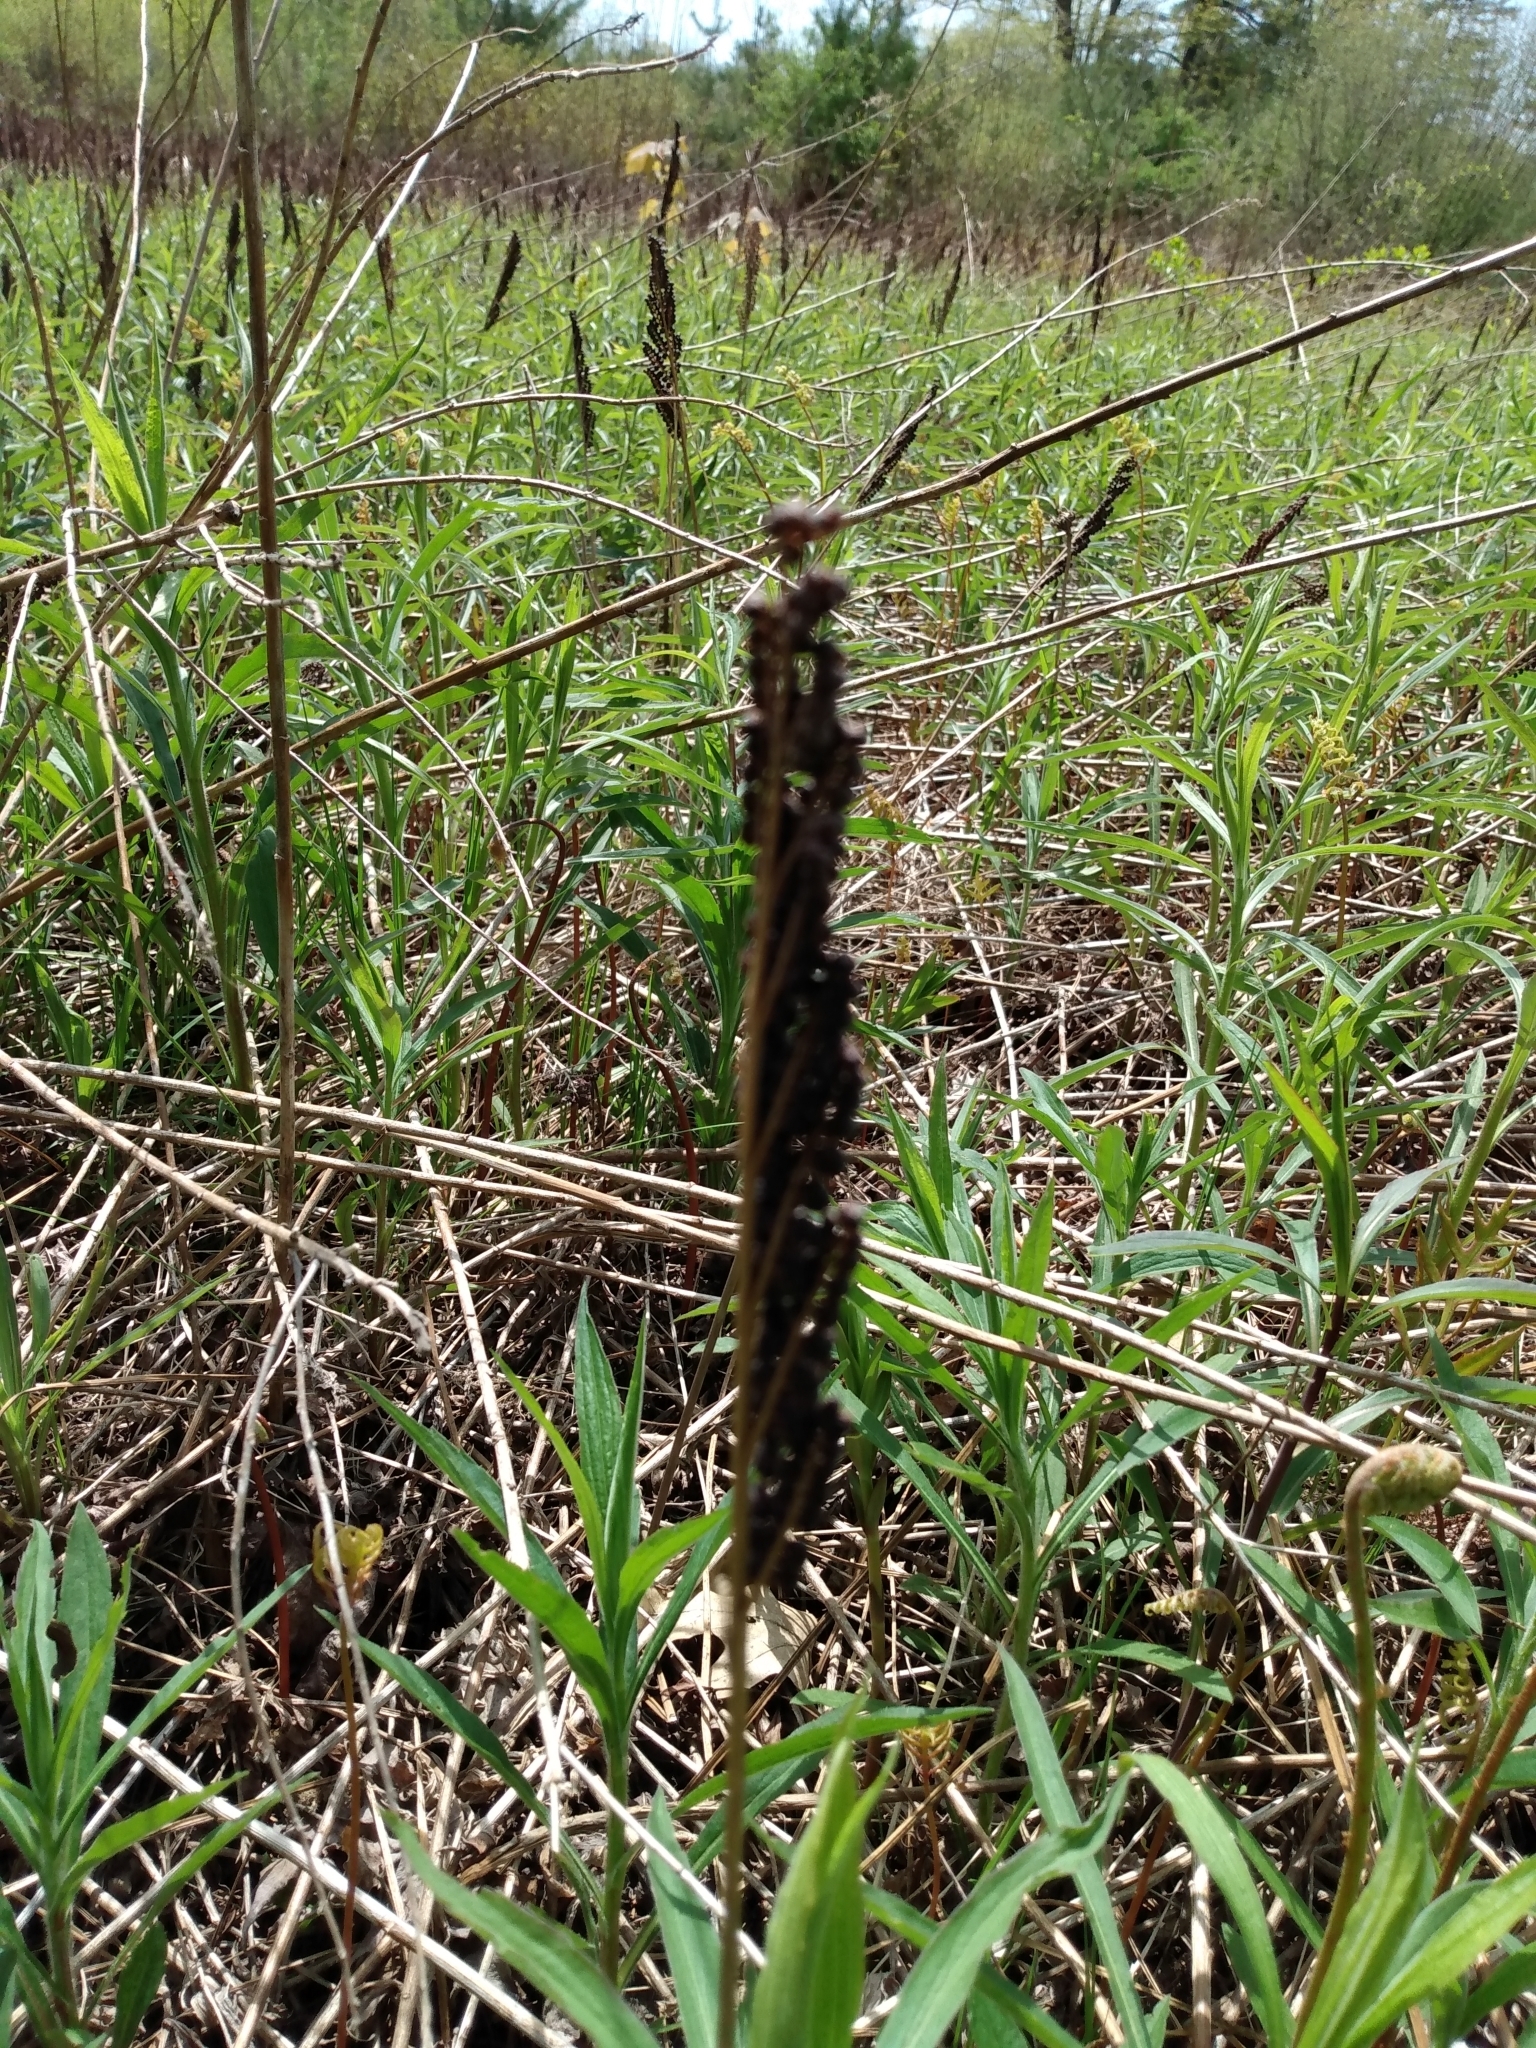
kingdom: Plantae
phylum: Tracheophyta
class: Polypodiopsida
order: Polypodiales
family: Onocleaceae
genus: Onoclea
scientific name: Onoclea sensibilis
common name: Sensitive fern
